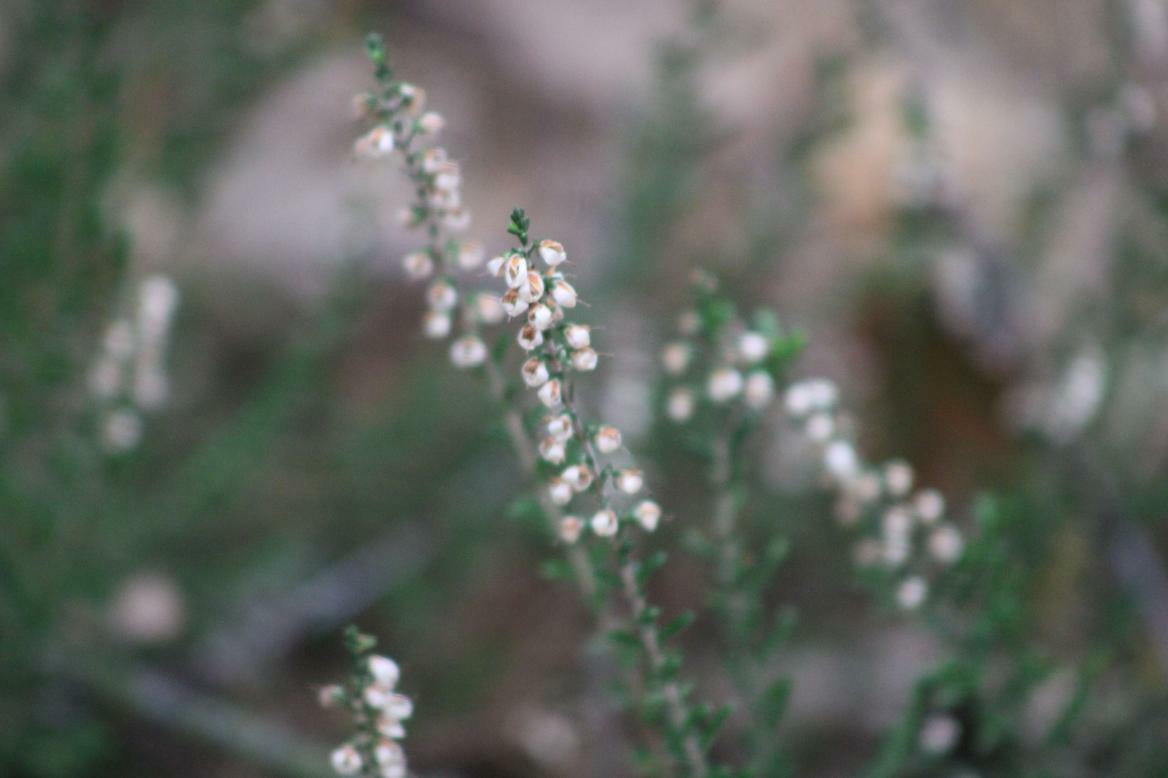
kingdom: Plantae
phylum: Tracheophyta
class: Magnoliopsida
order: Ericales
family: Ericaceae
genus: Calluna
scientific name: Calluna vulgaris
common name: Heather
